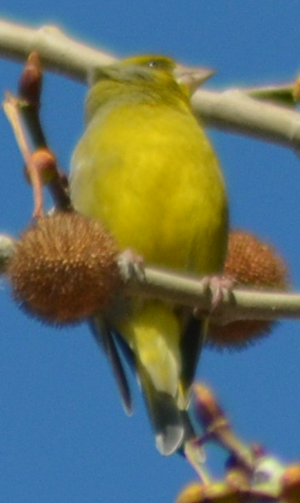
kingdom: Plantae
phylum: Tracheophyta
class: Liliopsida
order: Poales
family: Poaceae
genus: Chloris
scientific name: Chloris chloris
